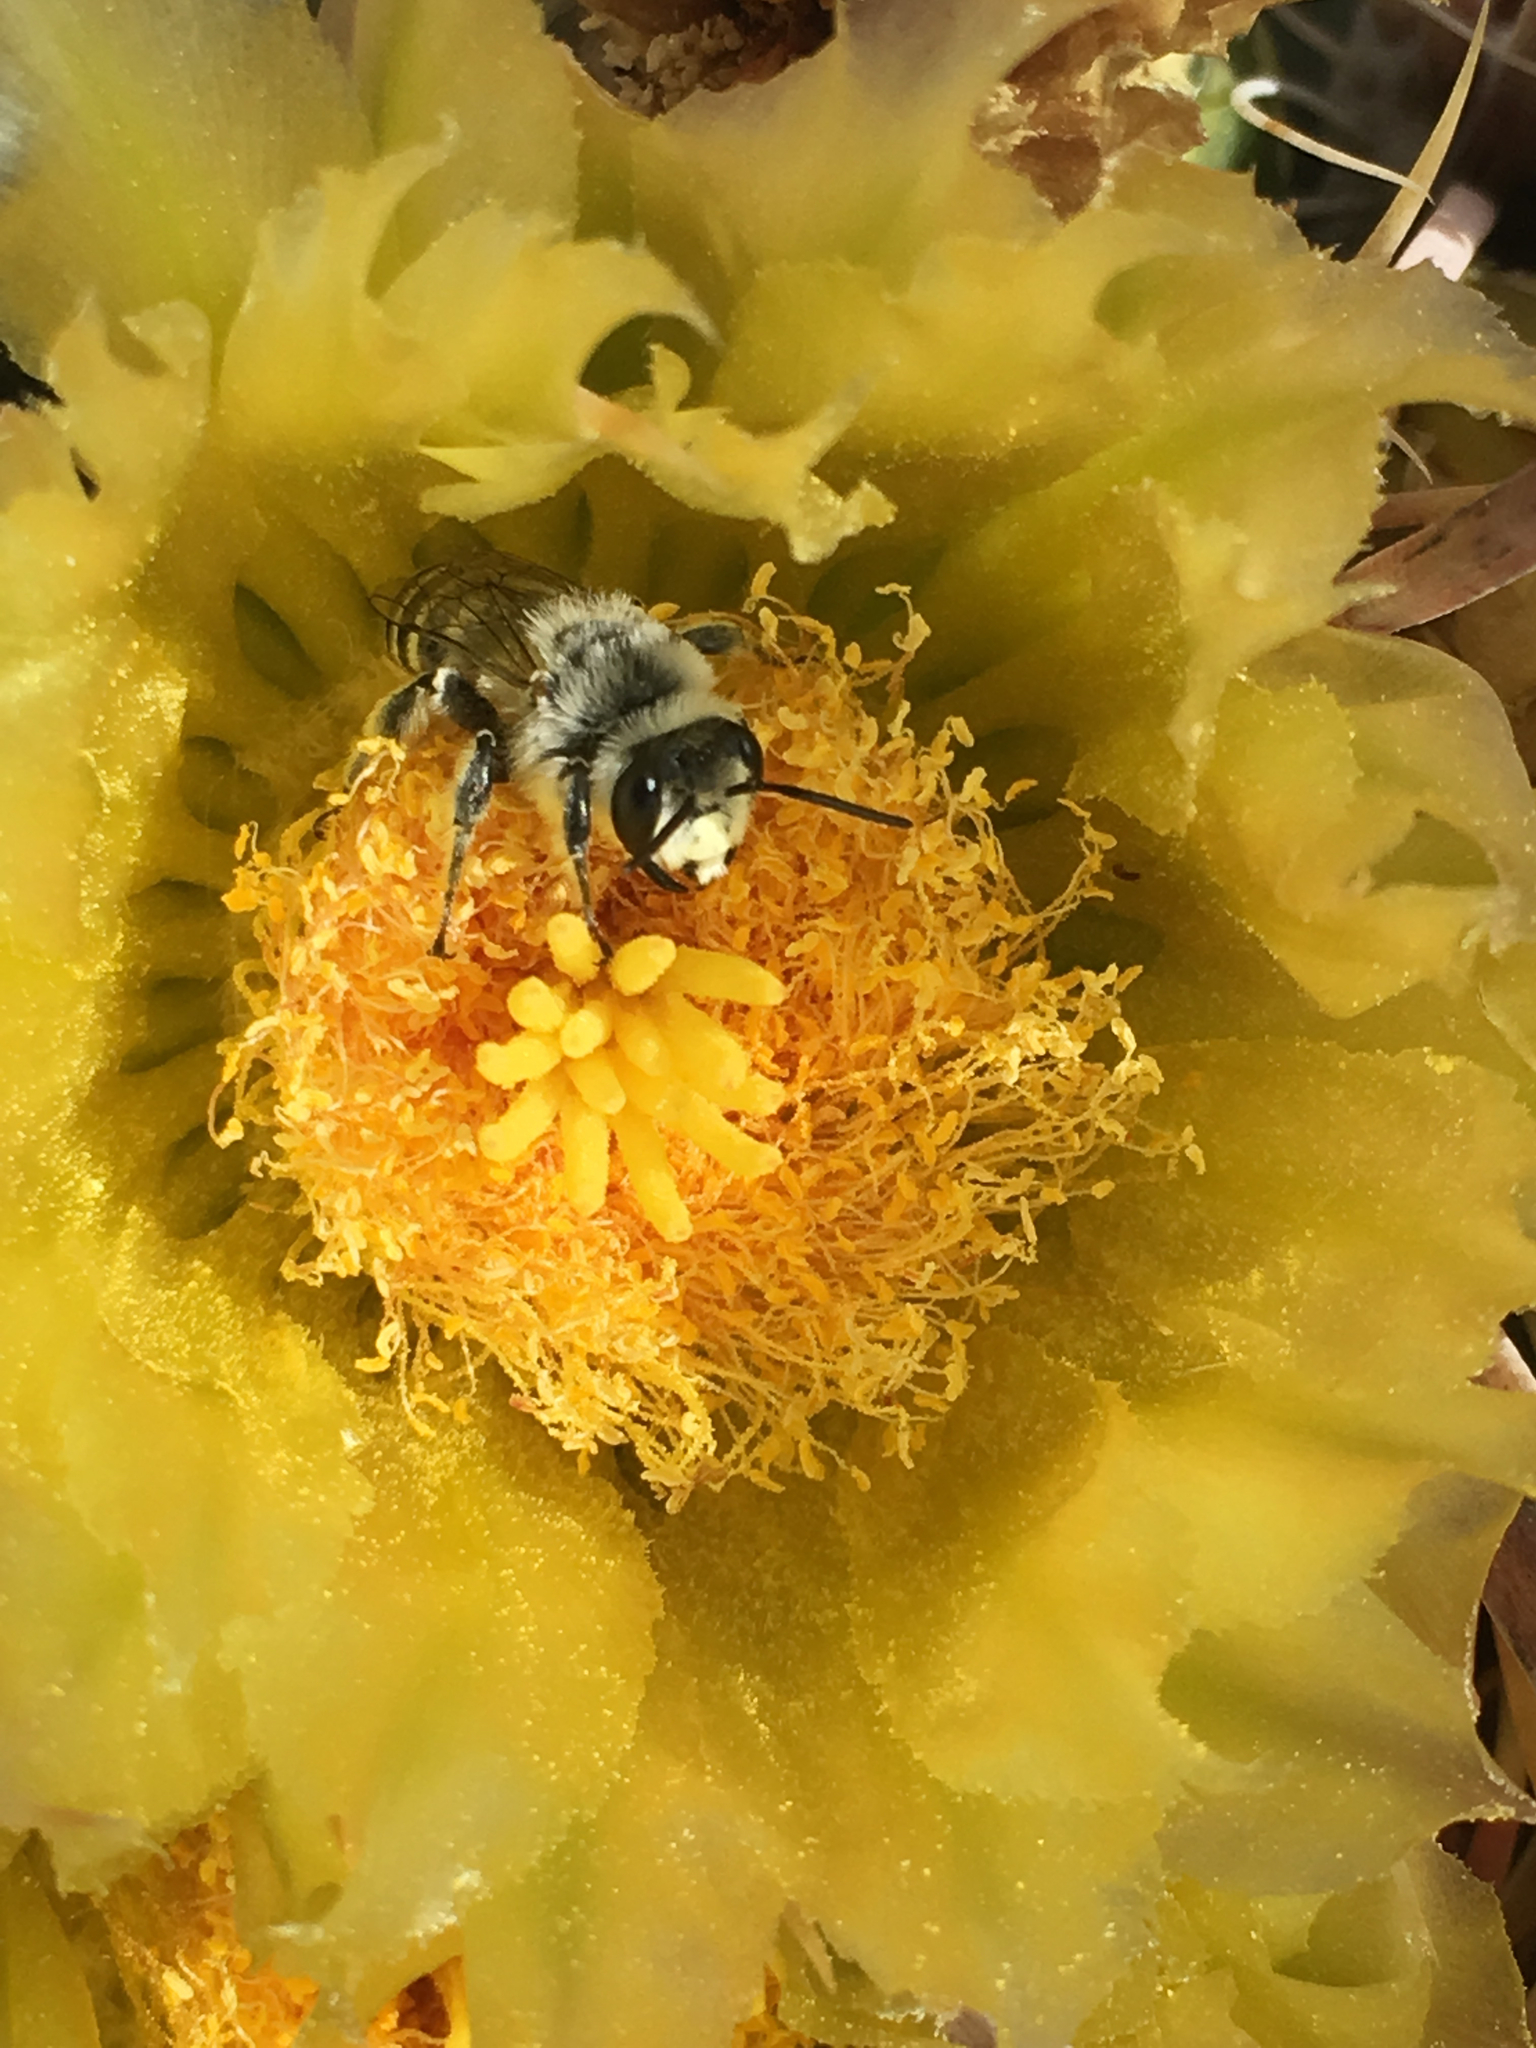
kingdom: Plantae
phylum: Tracheophyta
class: Magnoliopsida
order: Caryophyllales
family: Cactaceae
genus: Ferocactus
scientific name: Ferocactus cylindraceus
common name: California barrel cactus
